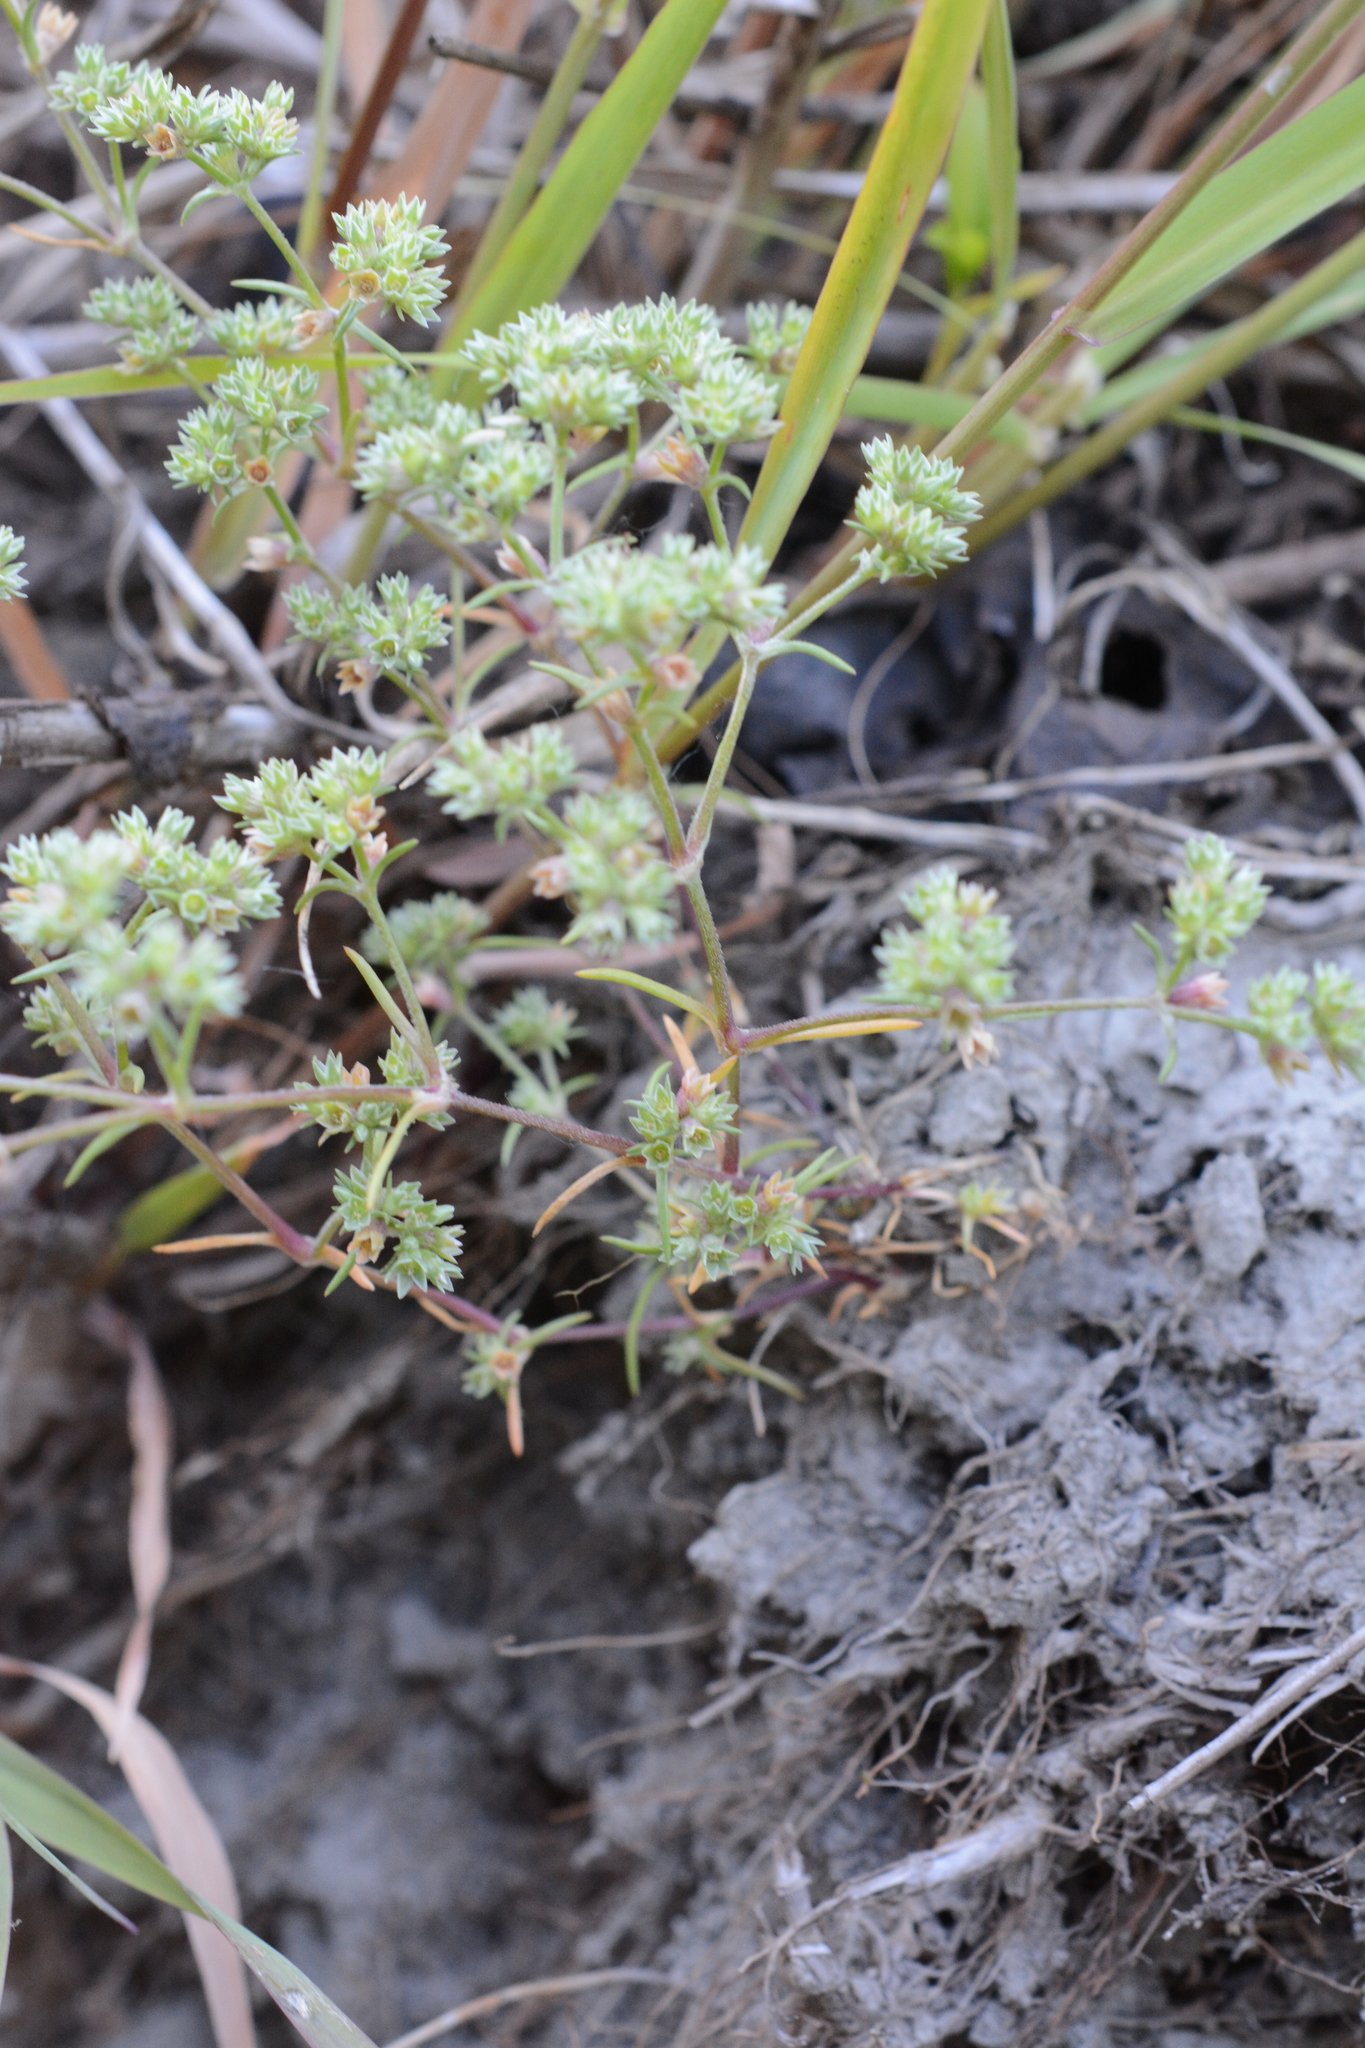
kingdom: Plantae
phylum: Tracheophyta
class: Magnoliopsida
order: Caryophyllales
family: Caryophyllaceae
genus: Scleranthus
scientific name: Scleranthus annuus
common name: Annual knawel
